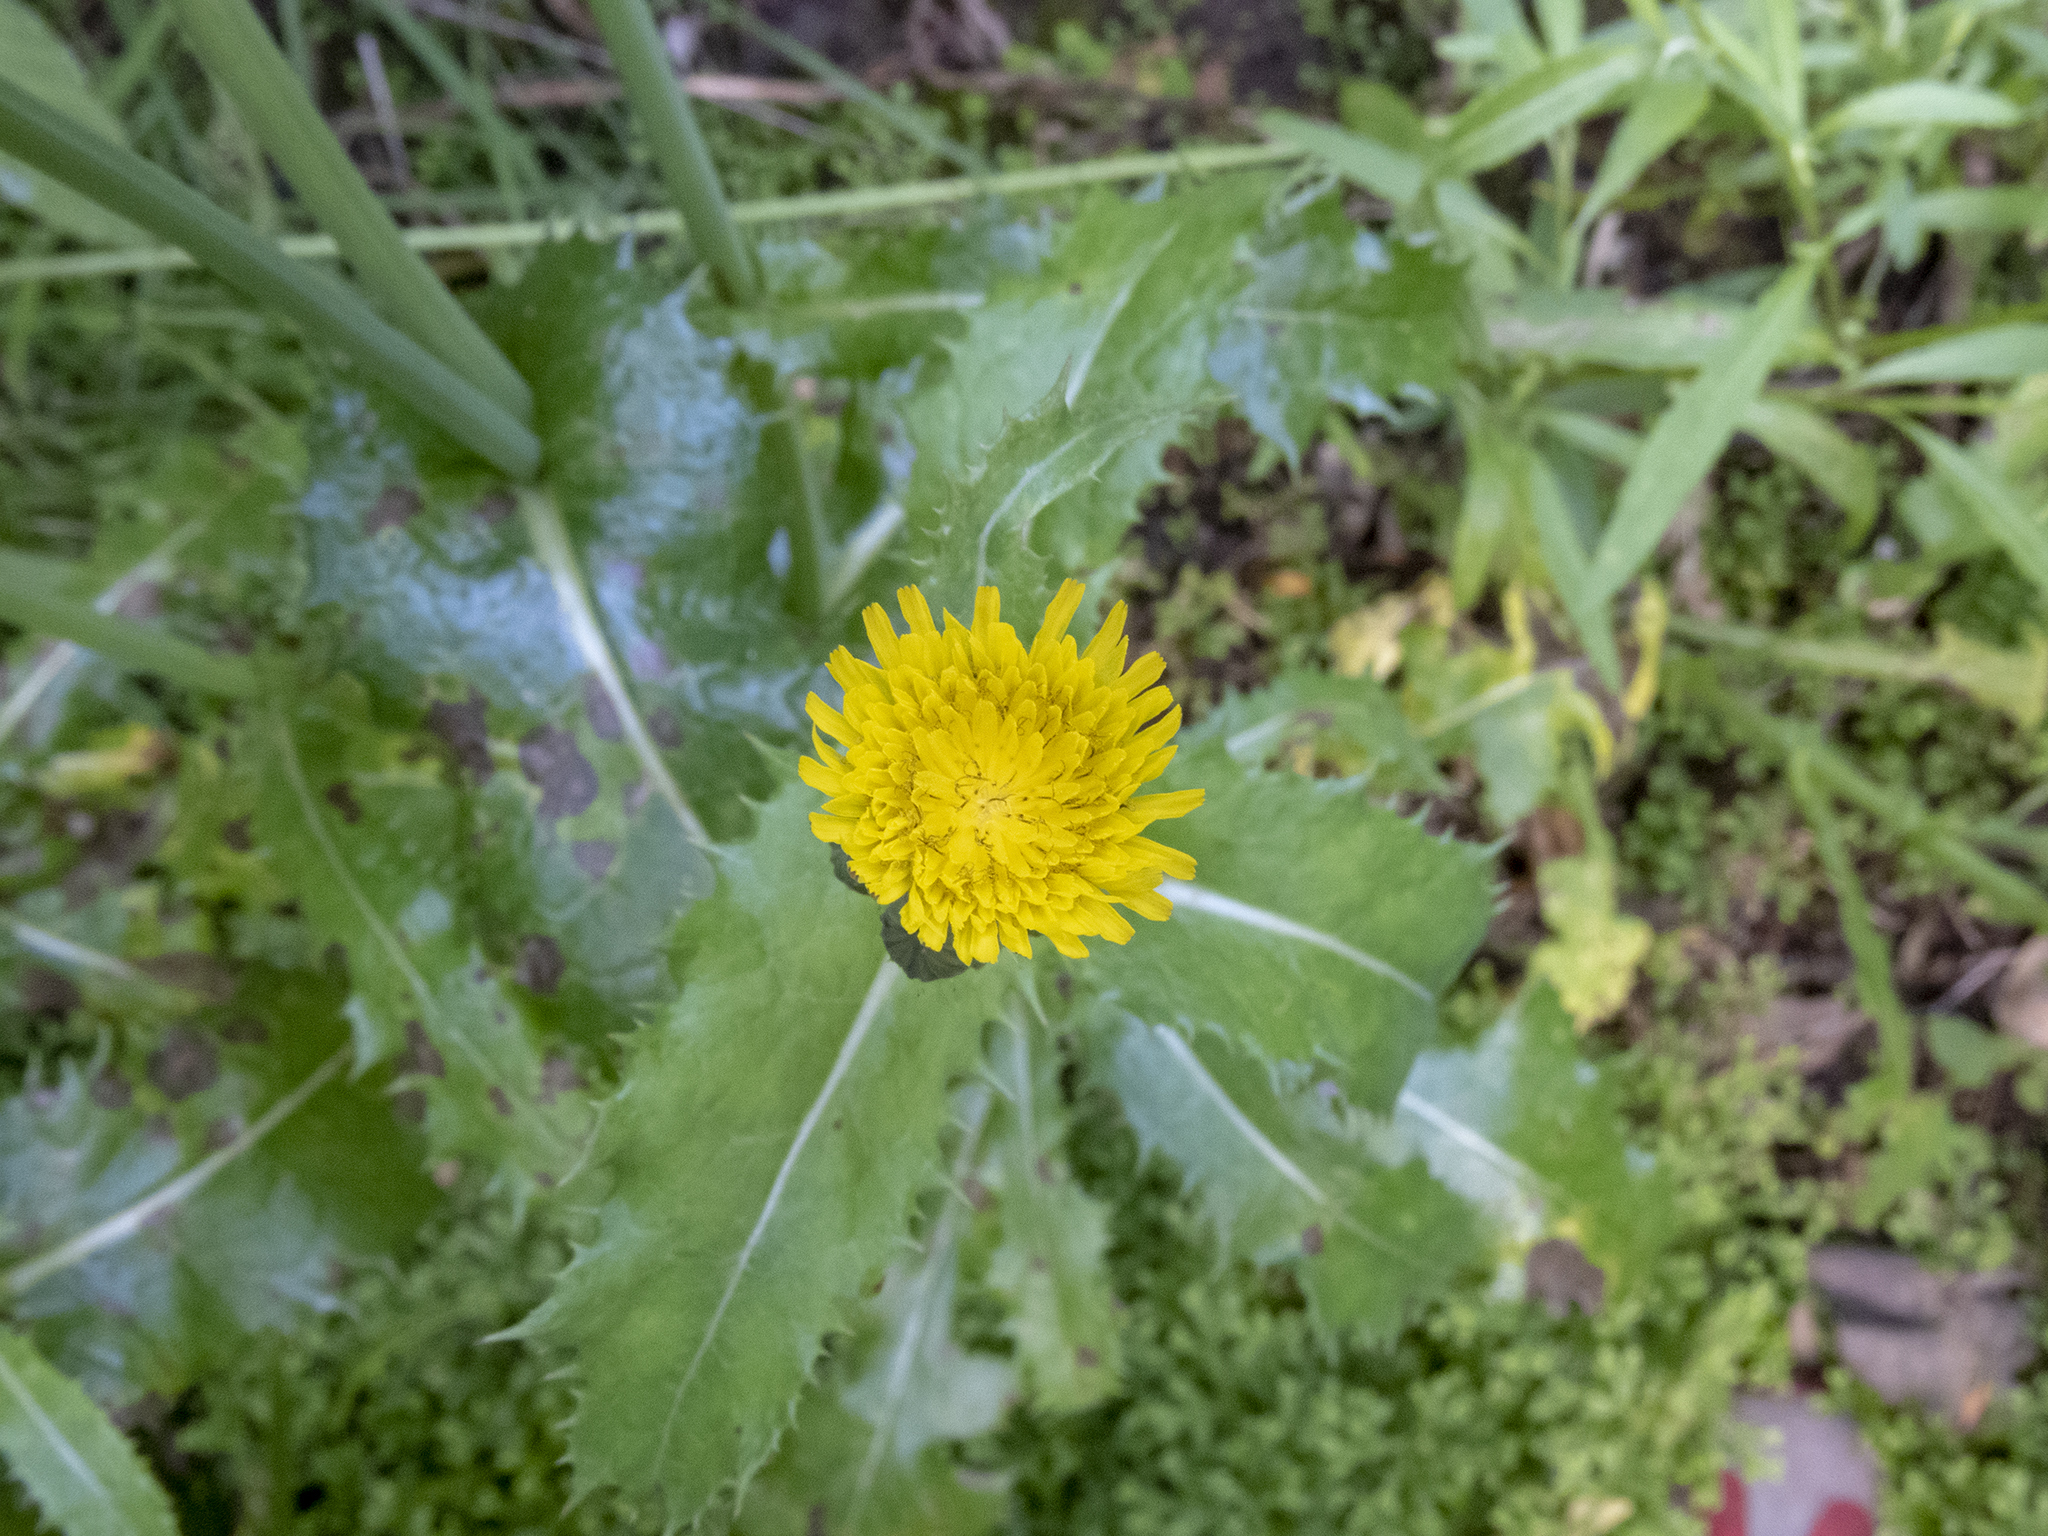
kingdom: Plantae
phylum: Tracheophyta
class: Magnoliopsida
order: Asterales
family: Asteraceae
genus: Sonchus
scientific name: Sonchus asper
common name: Prickly sow-thistle
